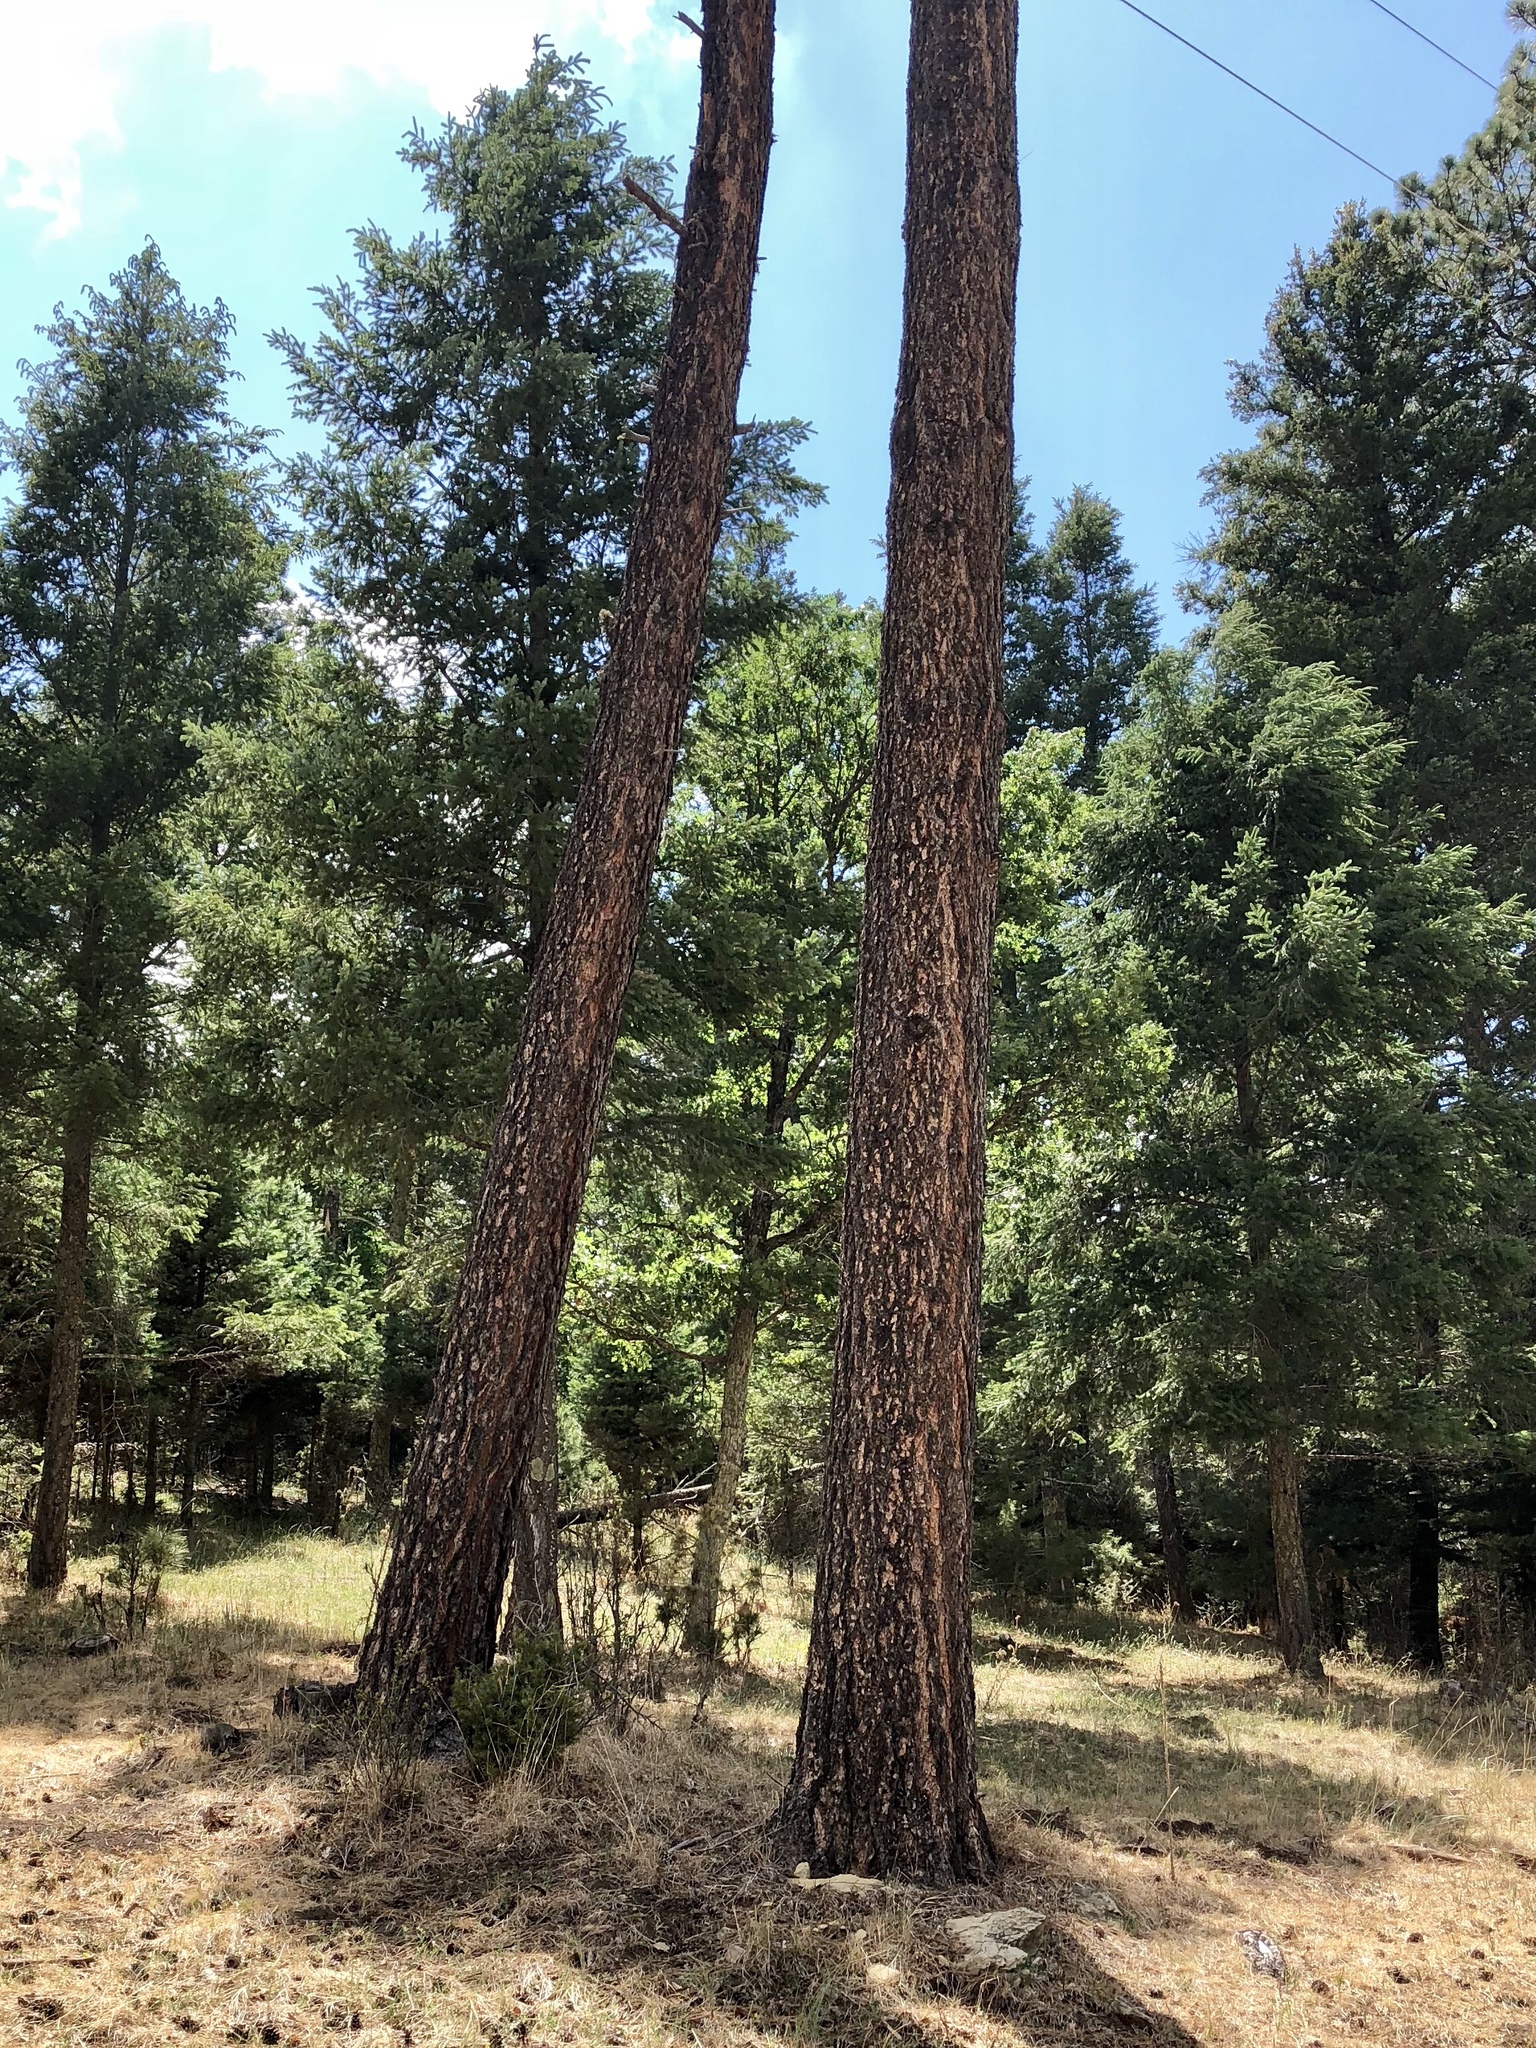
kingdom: Plantae
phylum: Tracheophyta
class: Pinopsida
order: Pinales
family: Pinaceae
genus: Pinus
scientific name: Pinus ponderosa
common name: Western yellow-pine
